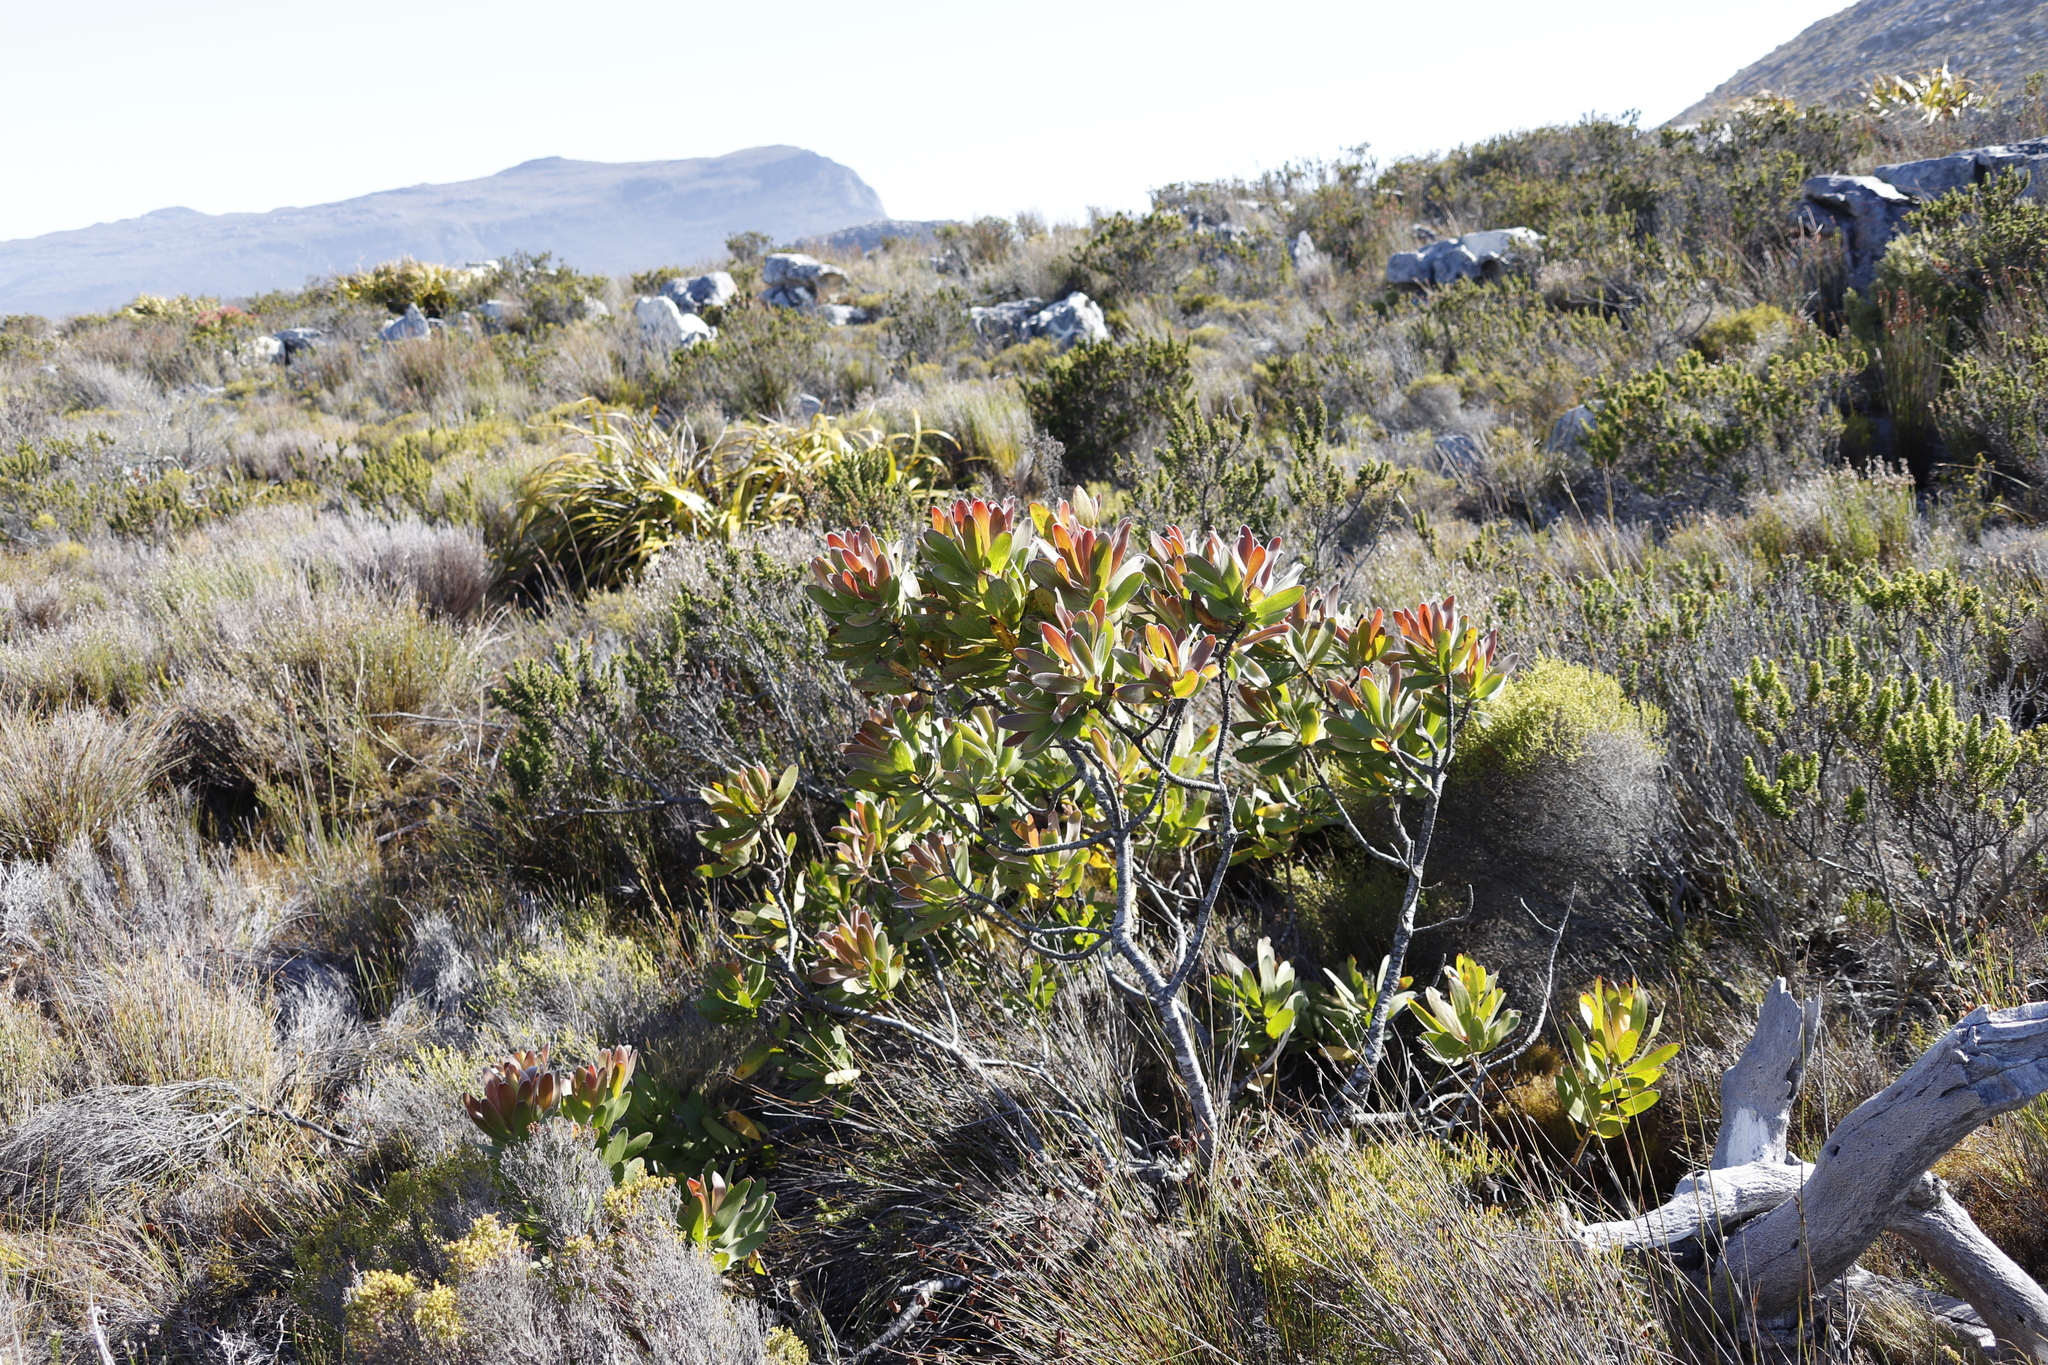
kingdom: Plantae
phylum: Tracheophyta
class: Magnoliopsida
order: Proteales
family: Proteaceae
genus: Leucadendron
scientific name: Leucadendron laureolum
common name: Golden sunshinebush
